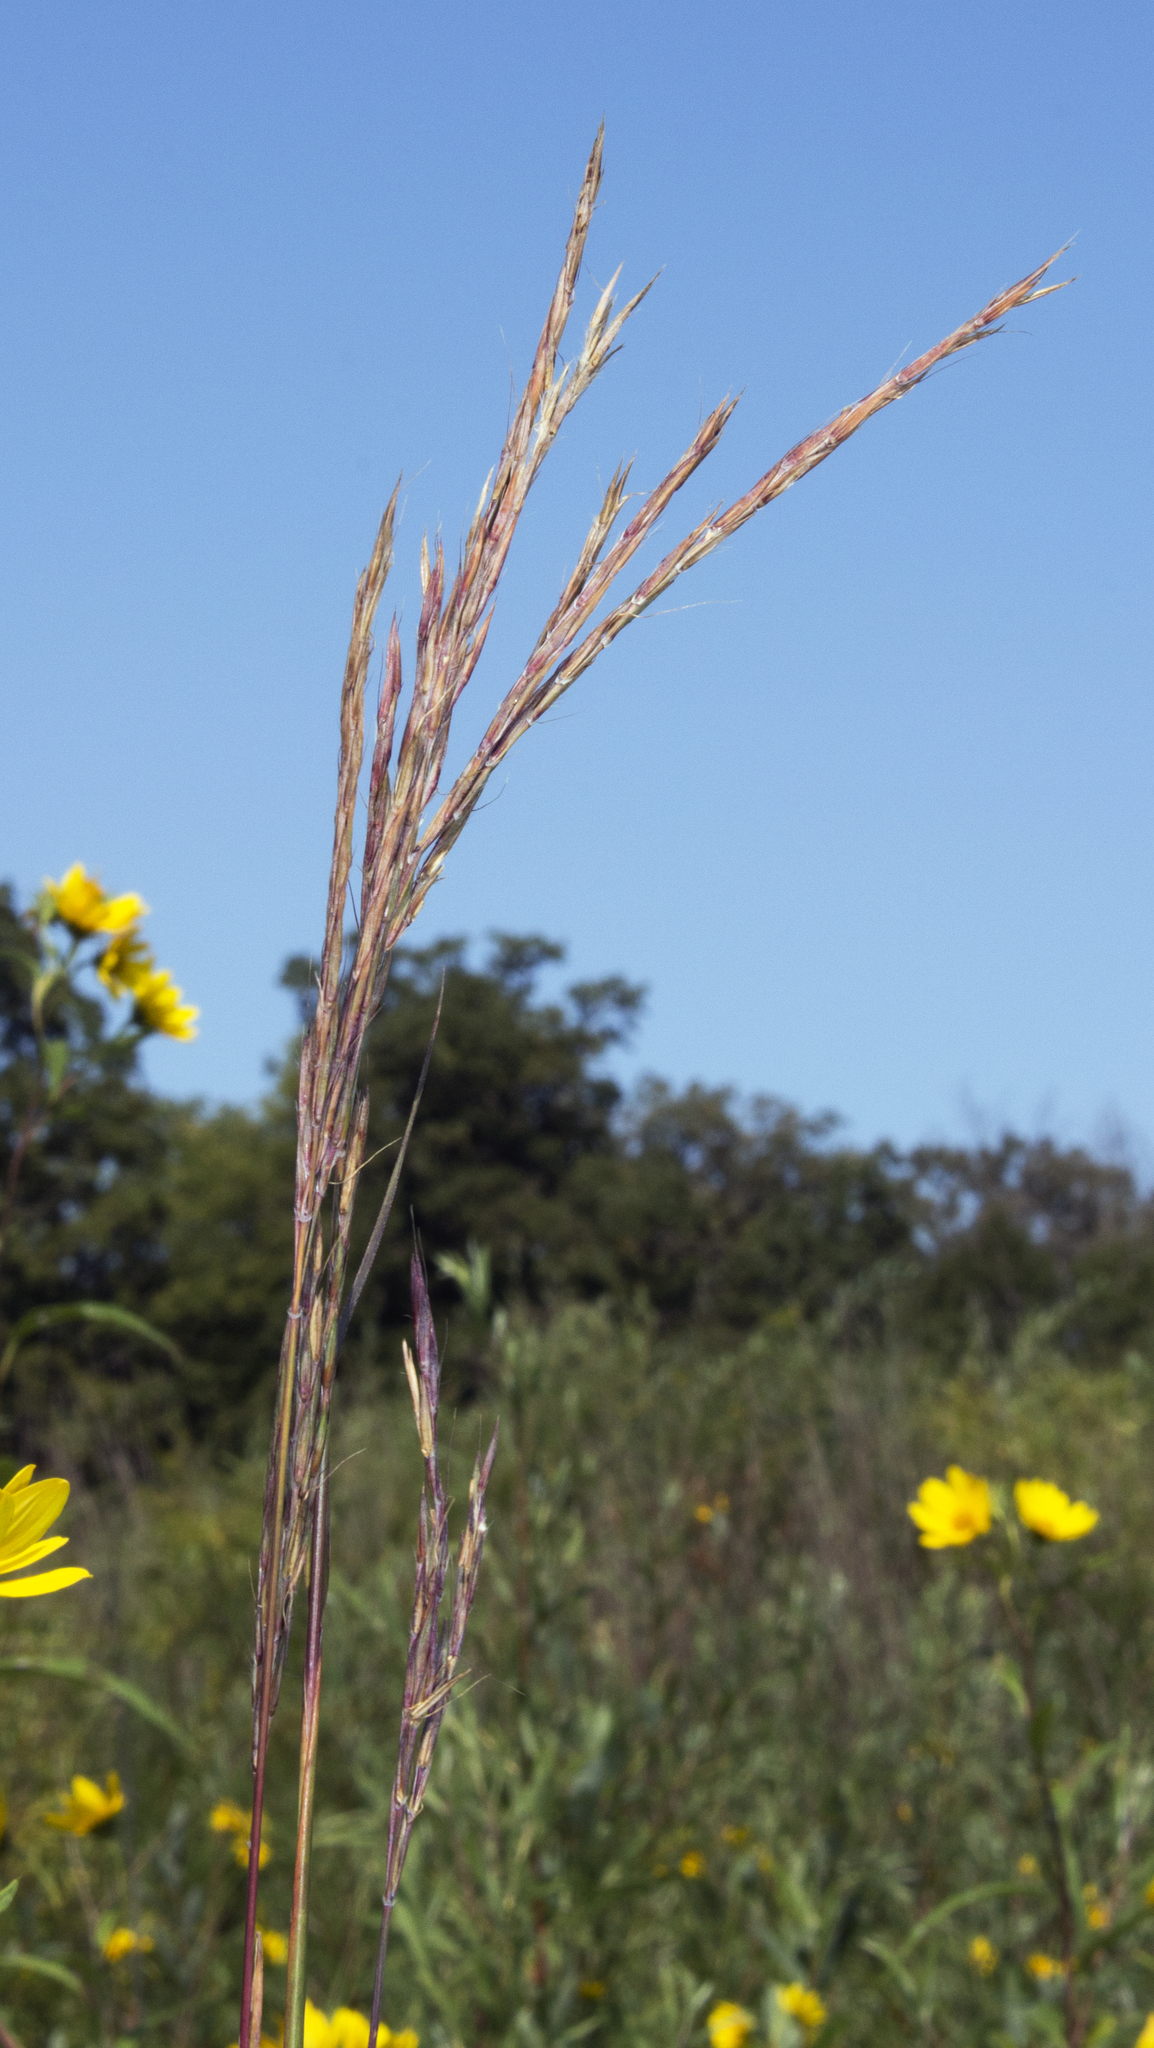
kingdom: Plantae
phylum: Tracheophyta
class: Liliopsida
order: Poales
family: Poaceae
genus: Andropogon
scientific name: Andropogon gerardi
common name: Big bluestem
